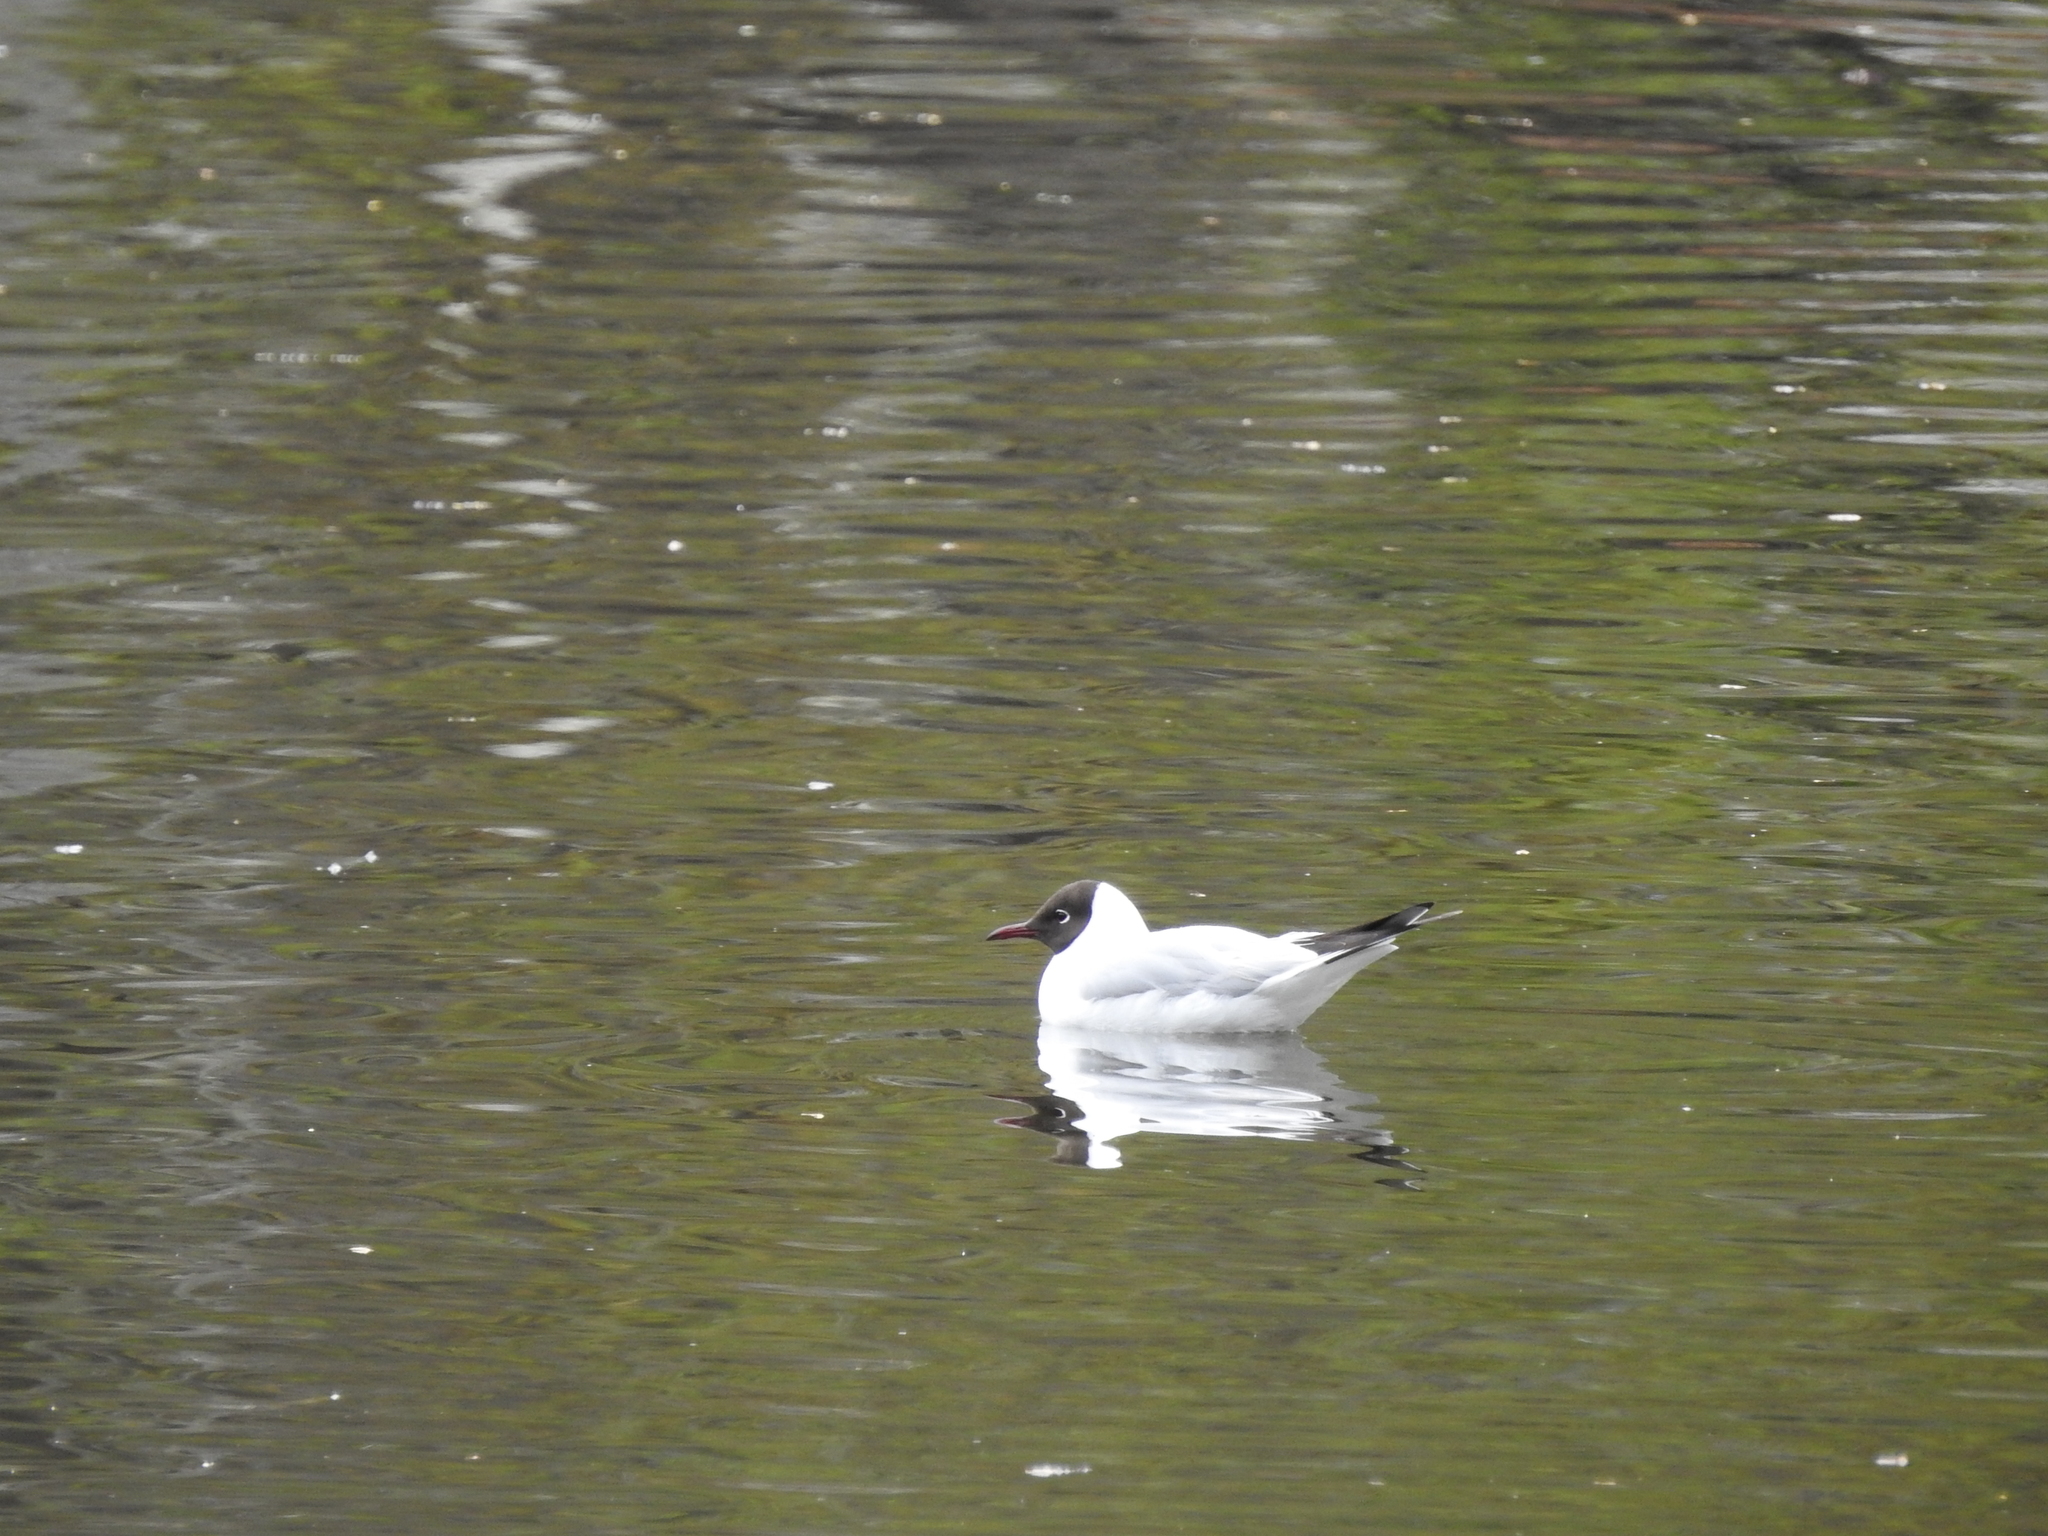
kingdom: Animalia
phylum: Chordata
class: Aves
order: Charadriiformes
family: Laridae
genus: Chroicocephalus
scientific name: Chroicocephalus ridibundus
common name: Black-headed gull
